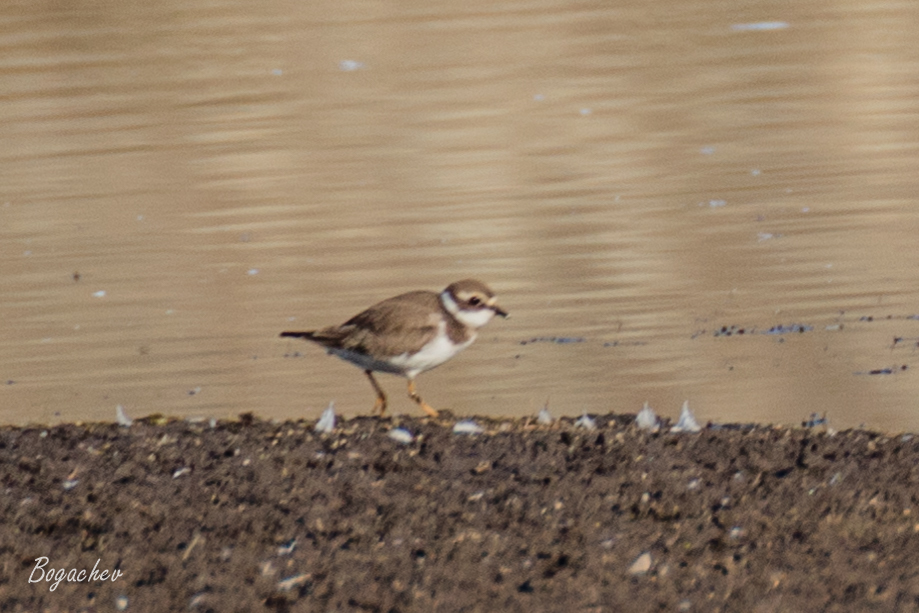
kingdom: Animalia
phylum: Chordata
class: Aves
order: Charadriiformes
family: Charadriidae
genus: Charadrius
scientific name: Charadrius hiaticula
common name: Common ringed plover
